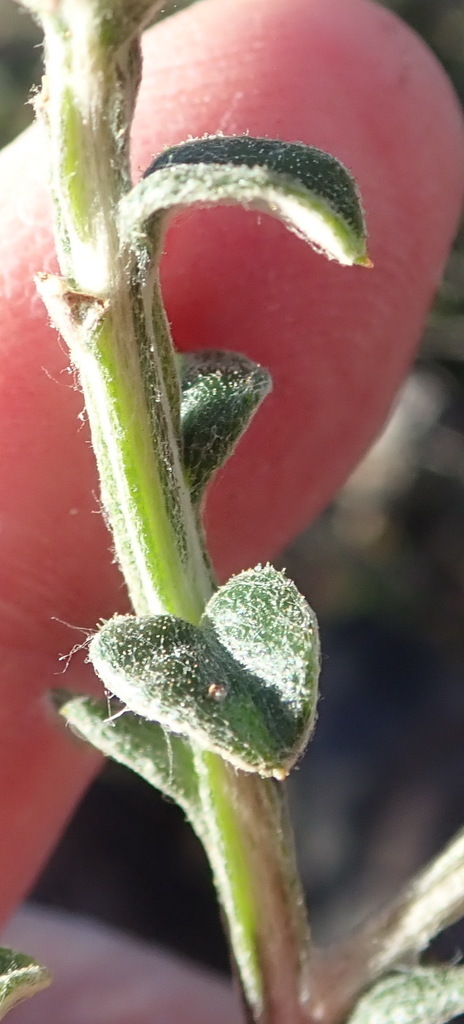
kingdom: Plantae
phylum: Tracheophyta
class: Magnoliopsida
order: Asterales
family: Asteraceae
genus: Printzia
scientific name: Printzia polifolia
